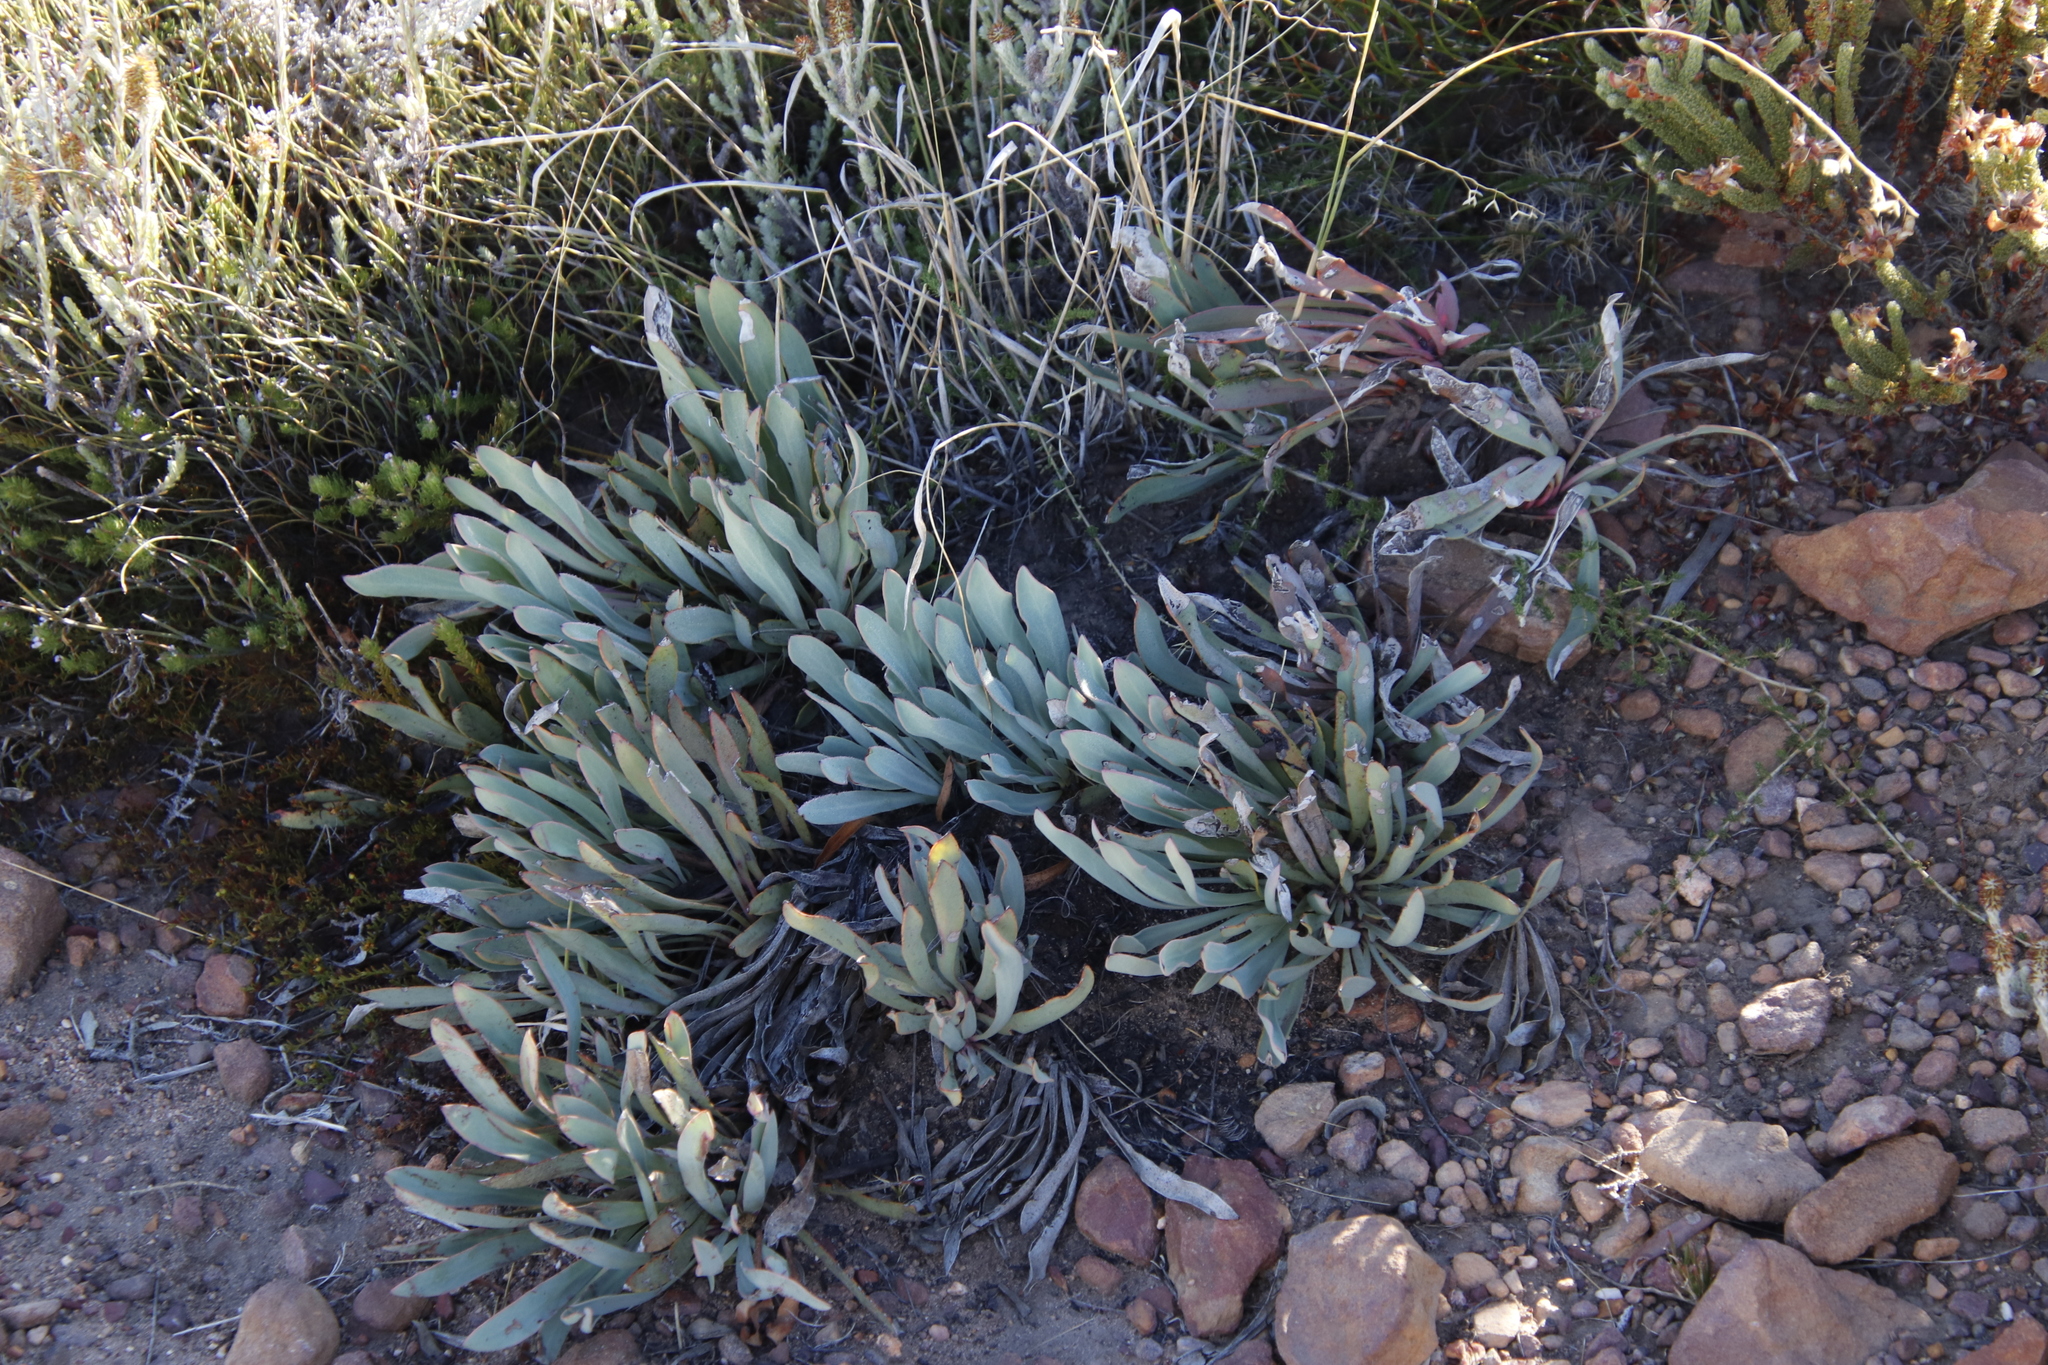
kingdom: Plantae
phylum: Tracheophyta
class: Magnoliopsida
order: Proteales
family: Proteaceae
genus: Protea
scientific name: Protea laevis
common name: Smooth-leaf sugarbush
